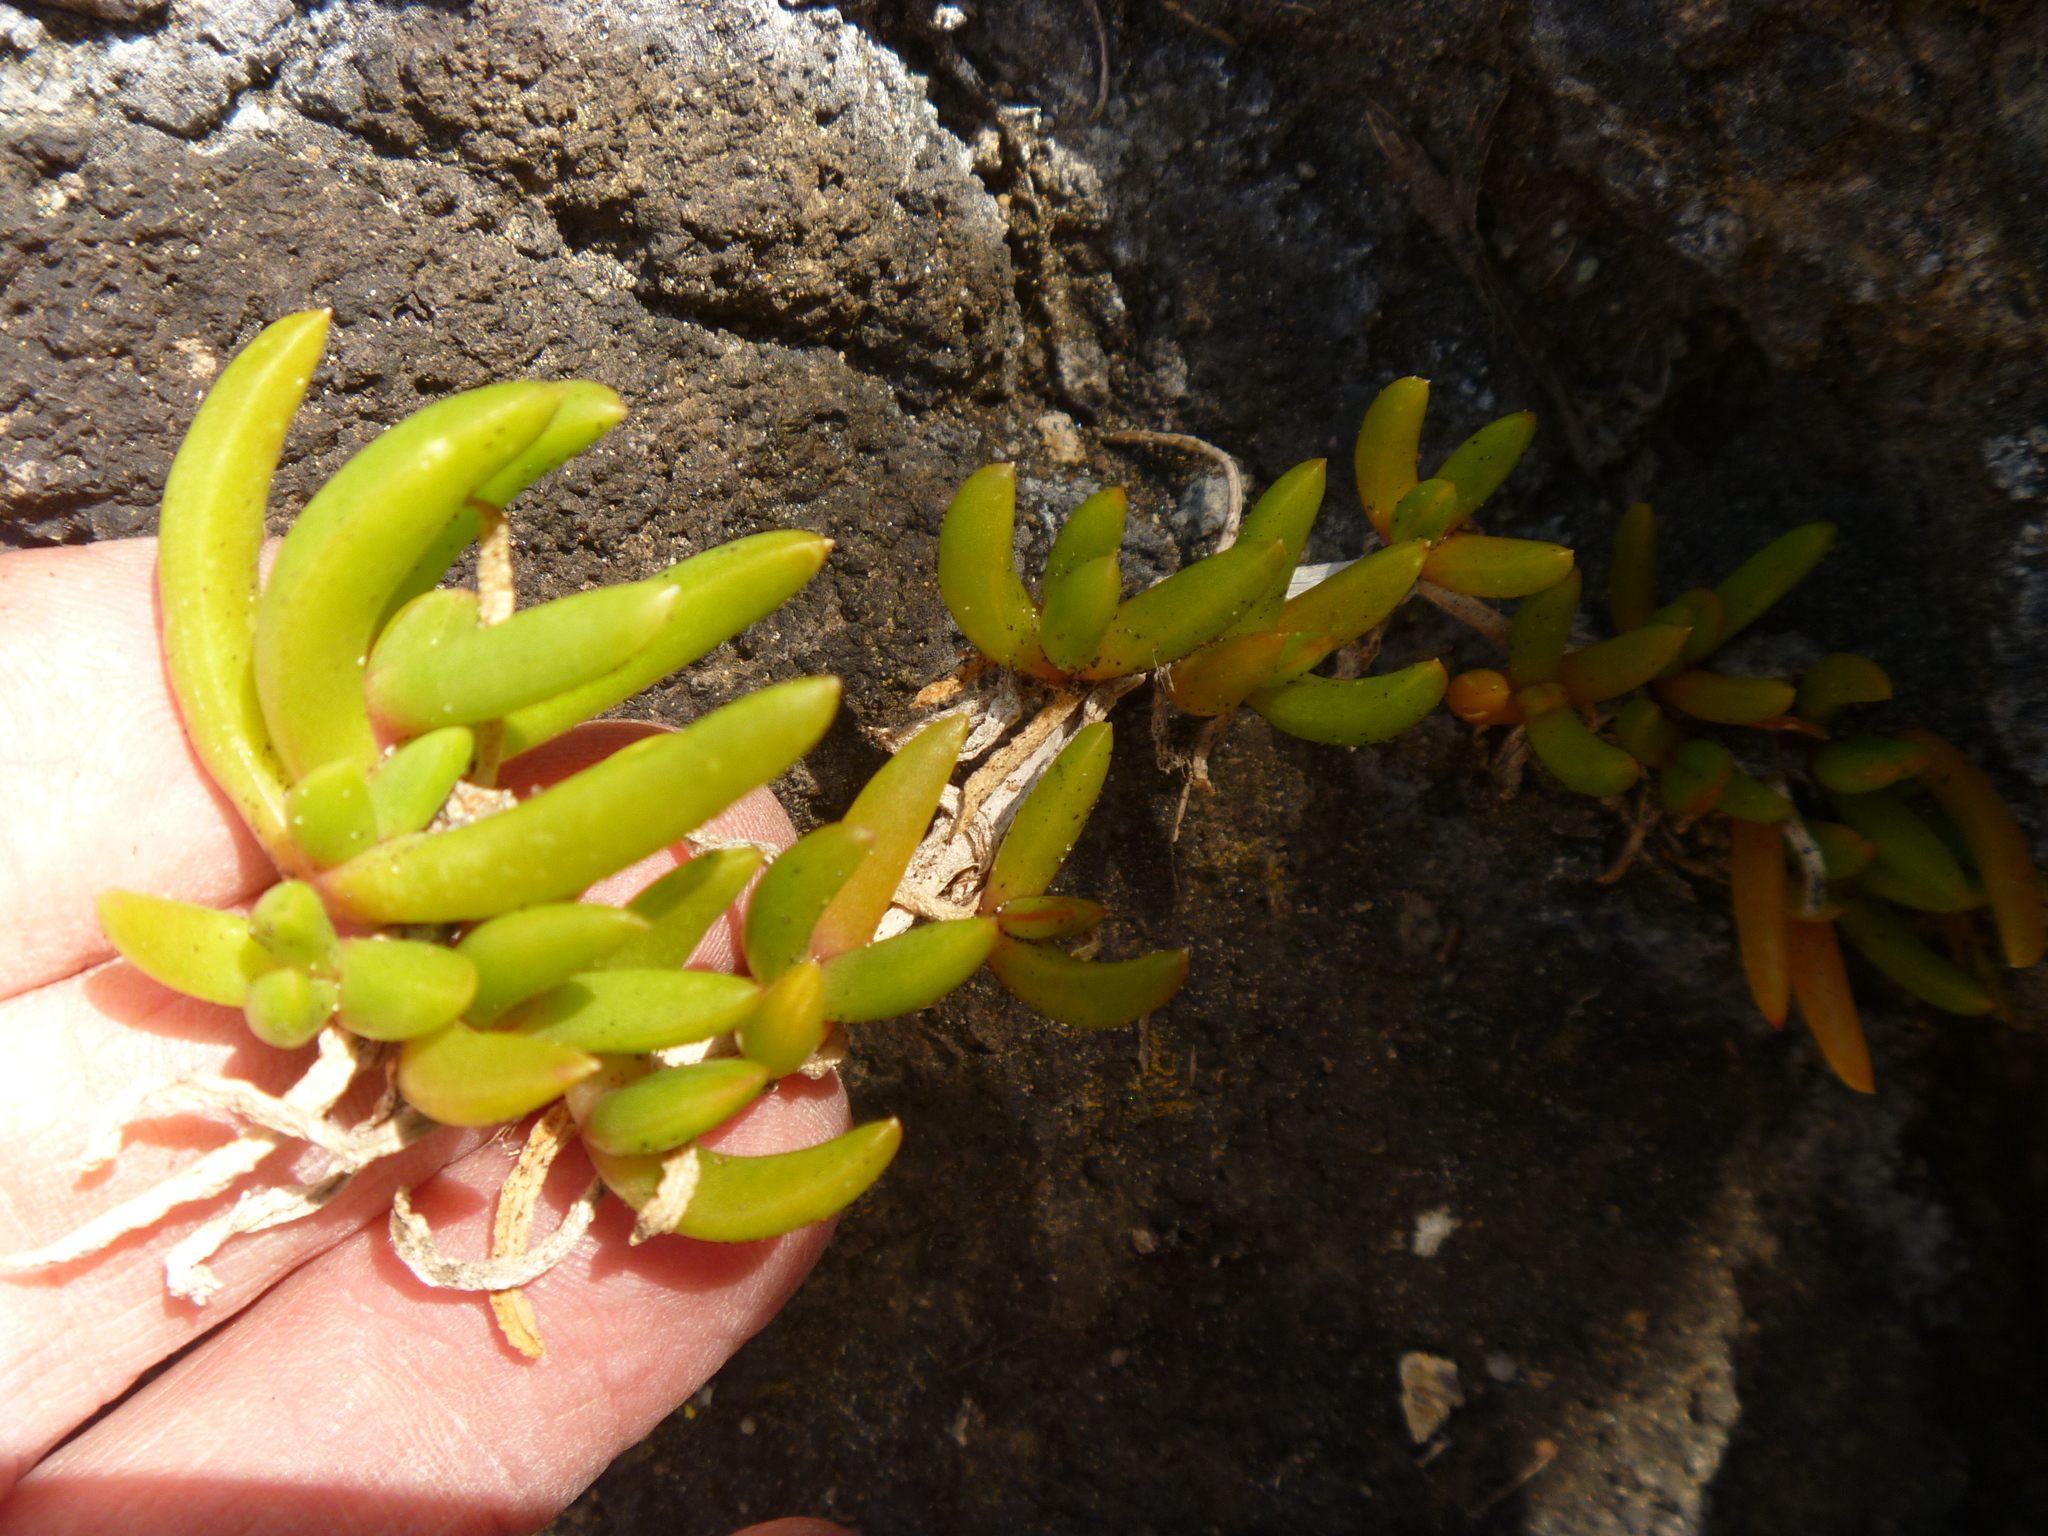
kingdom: Plantae
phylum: Tracheophyta
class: Magnoliopsida
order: Caryophyllales
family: Aizoaceae
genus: Disphyma
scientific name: Disphyma australe
